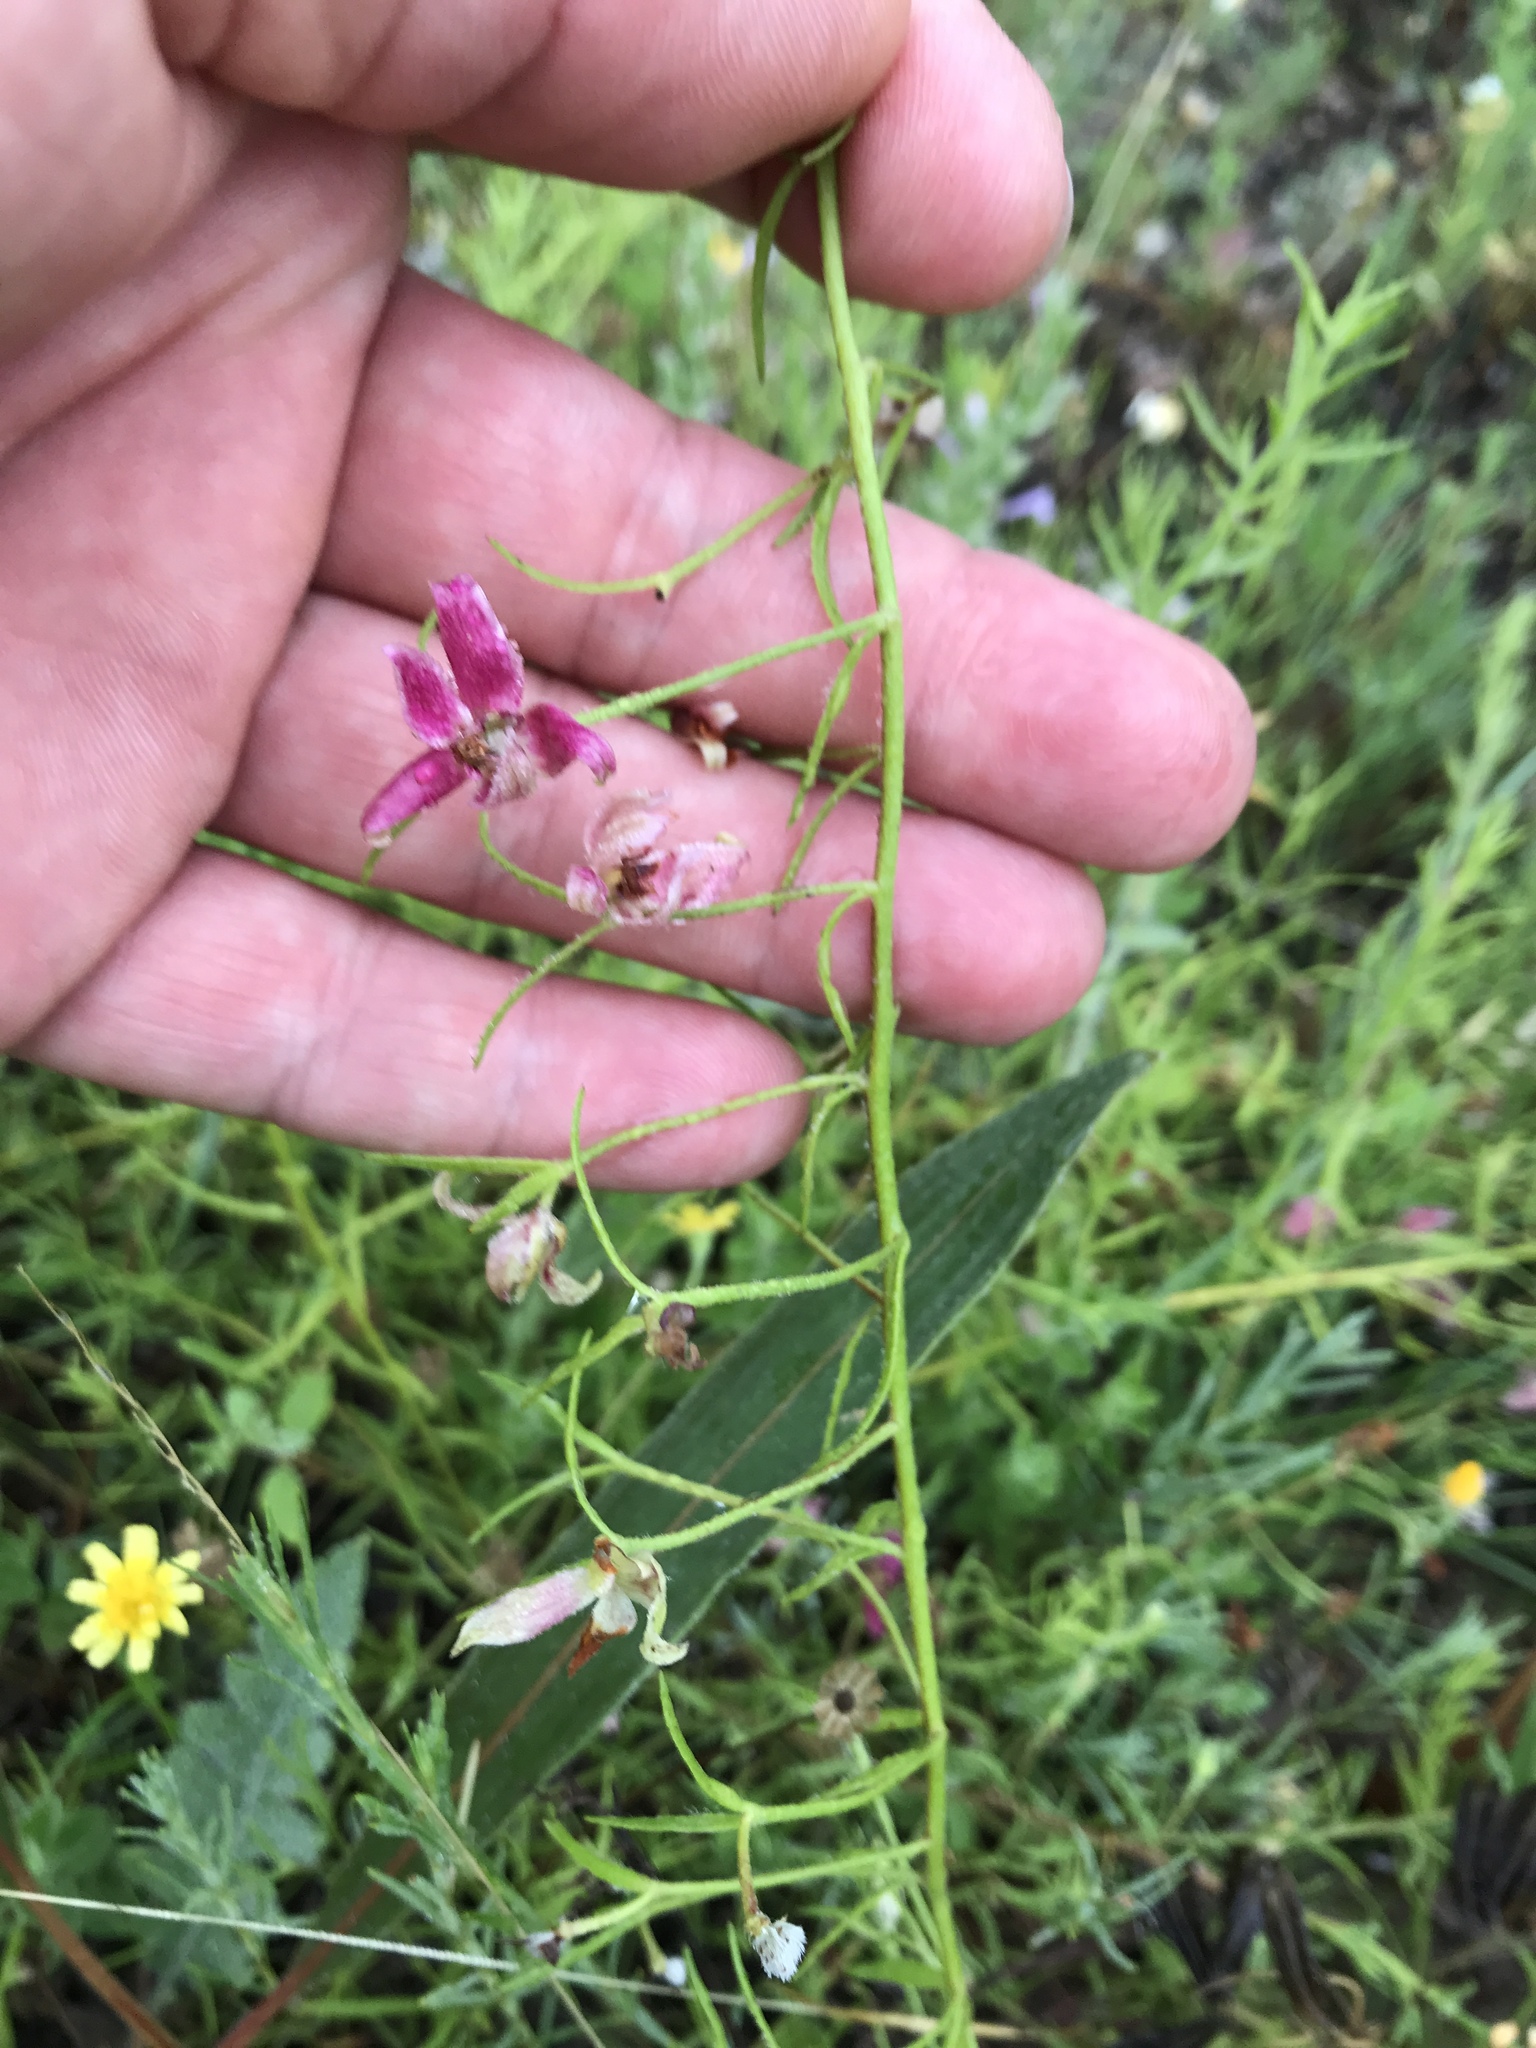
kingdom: Plantae
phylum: Tracheophyta
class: Magnoliopsida
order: Zygophyllales
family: Krameriaceae
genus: Krameria
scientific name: Krameria lanceolata
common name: Ratany
